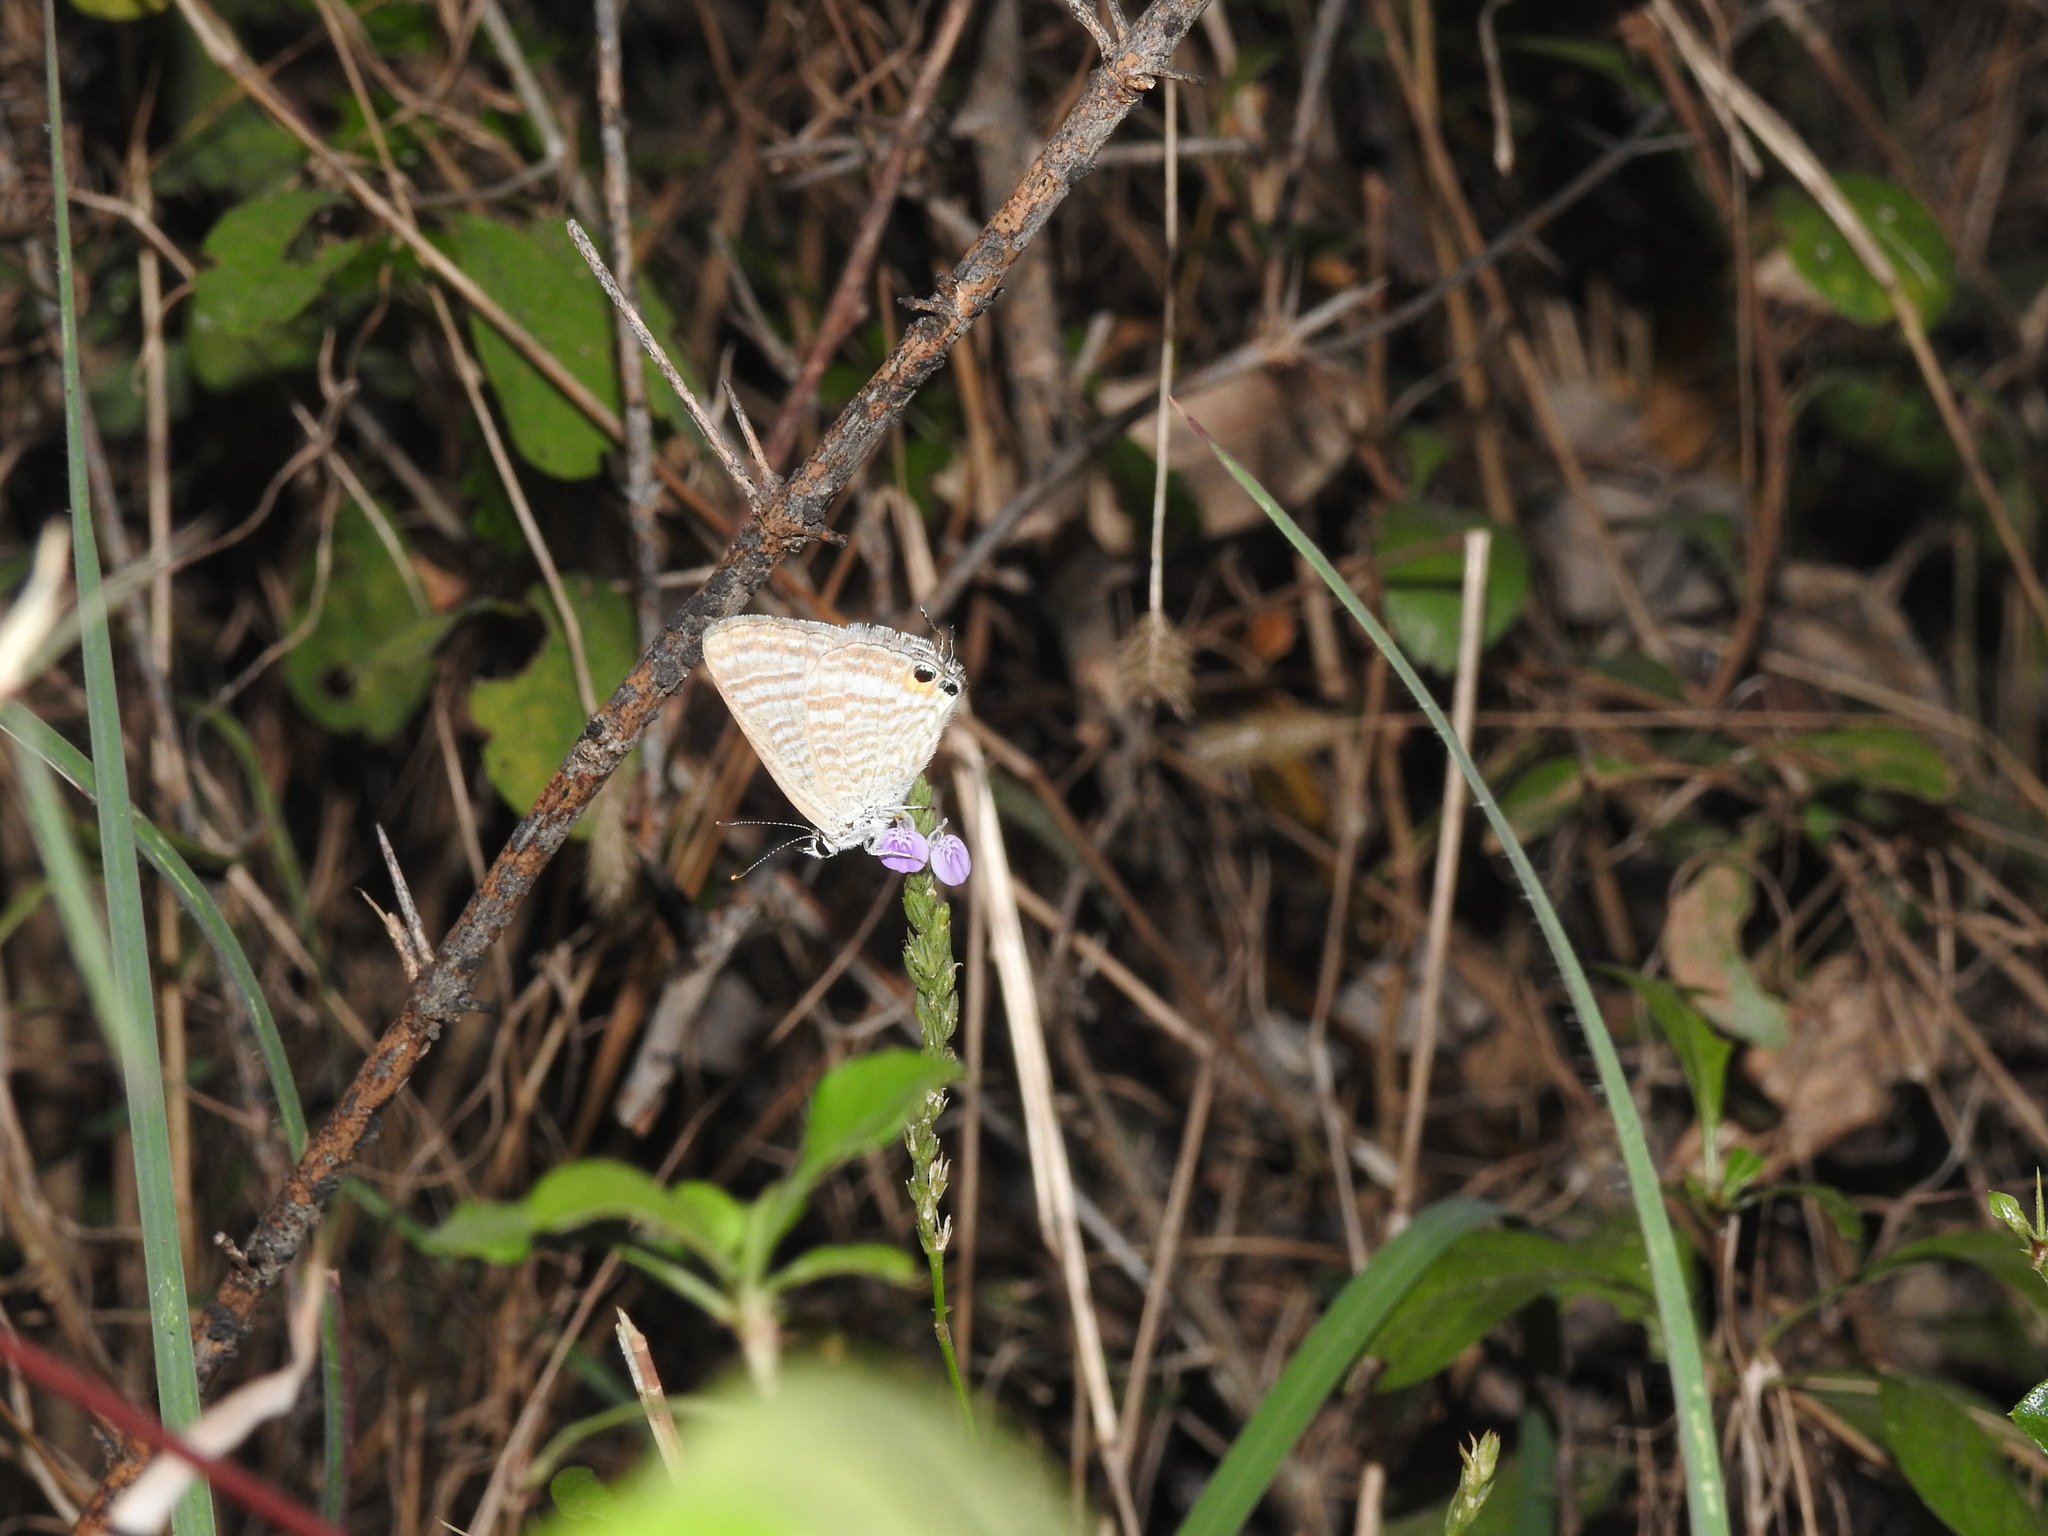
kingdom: Animalia
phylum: Arthropoda
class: Insecta
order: Lepidoptera
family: Lycaenidae
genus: Lampides
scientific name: Lampides boeticus
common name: Long-tailed blue
